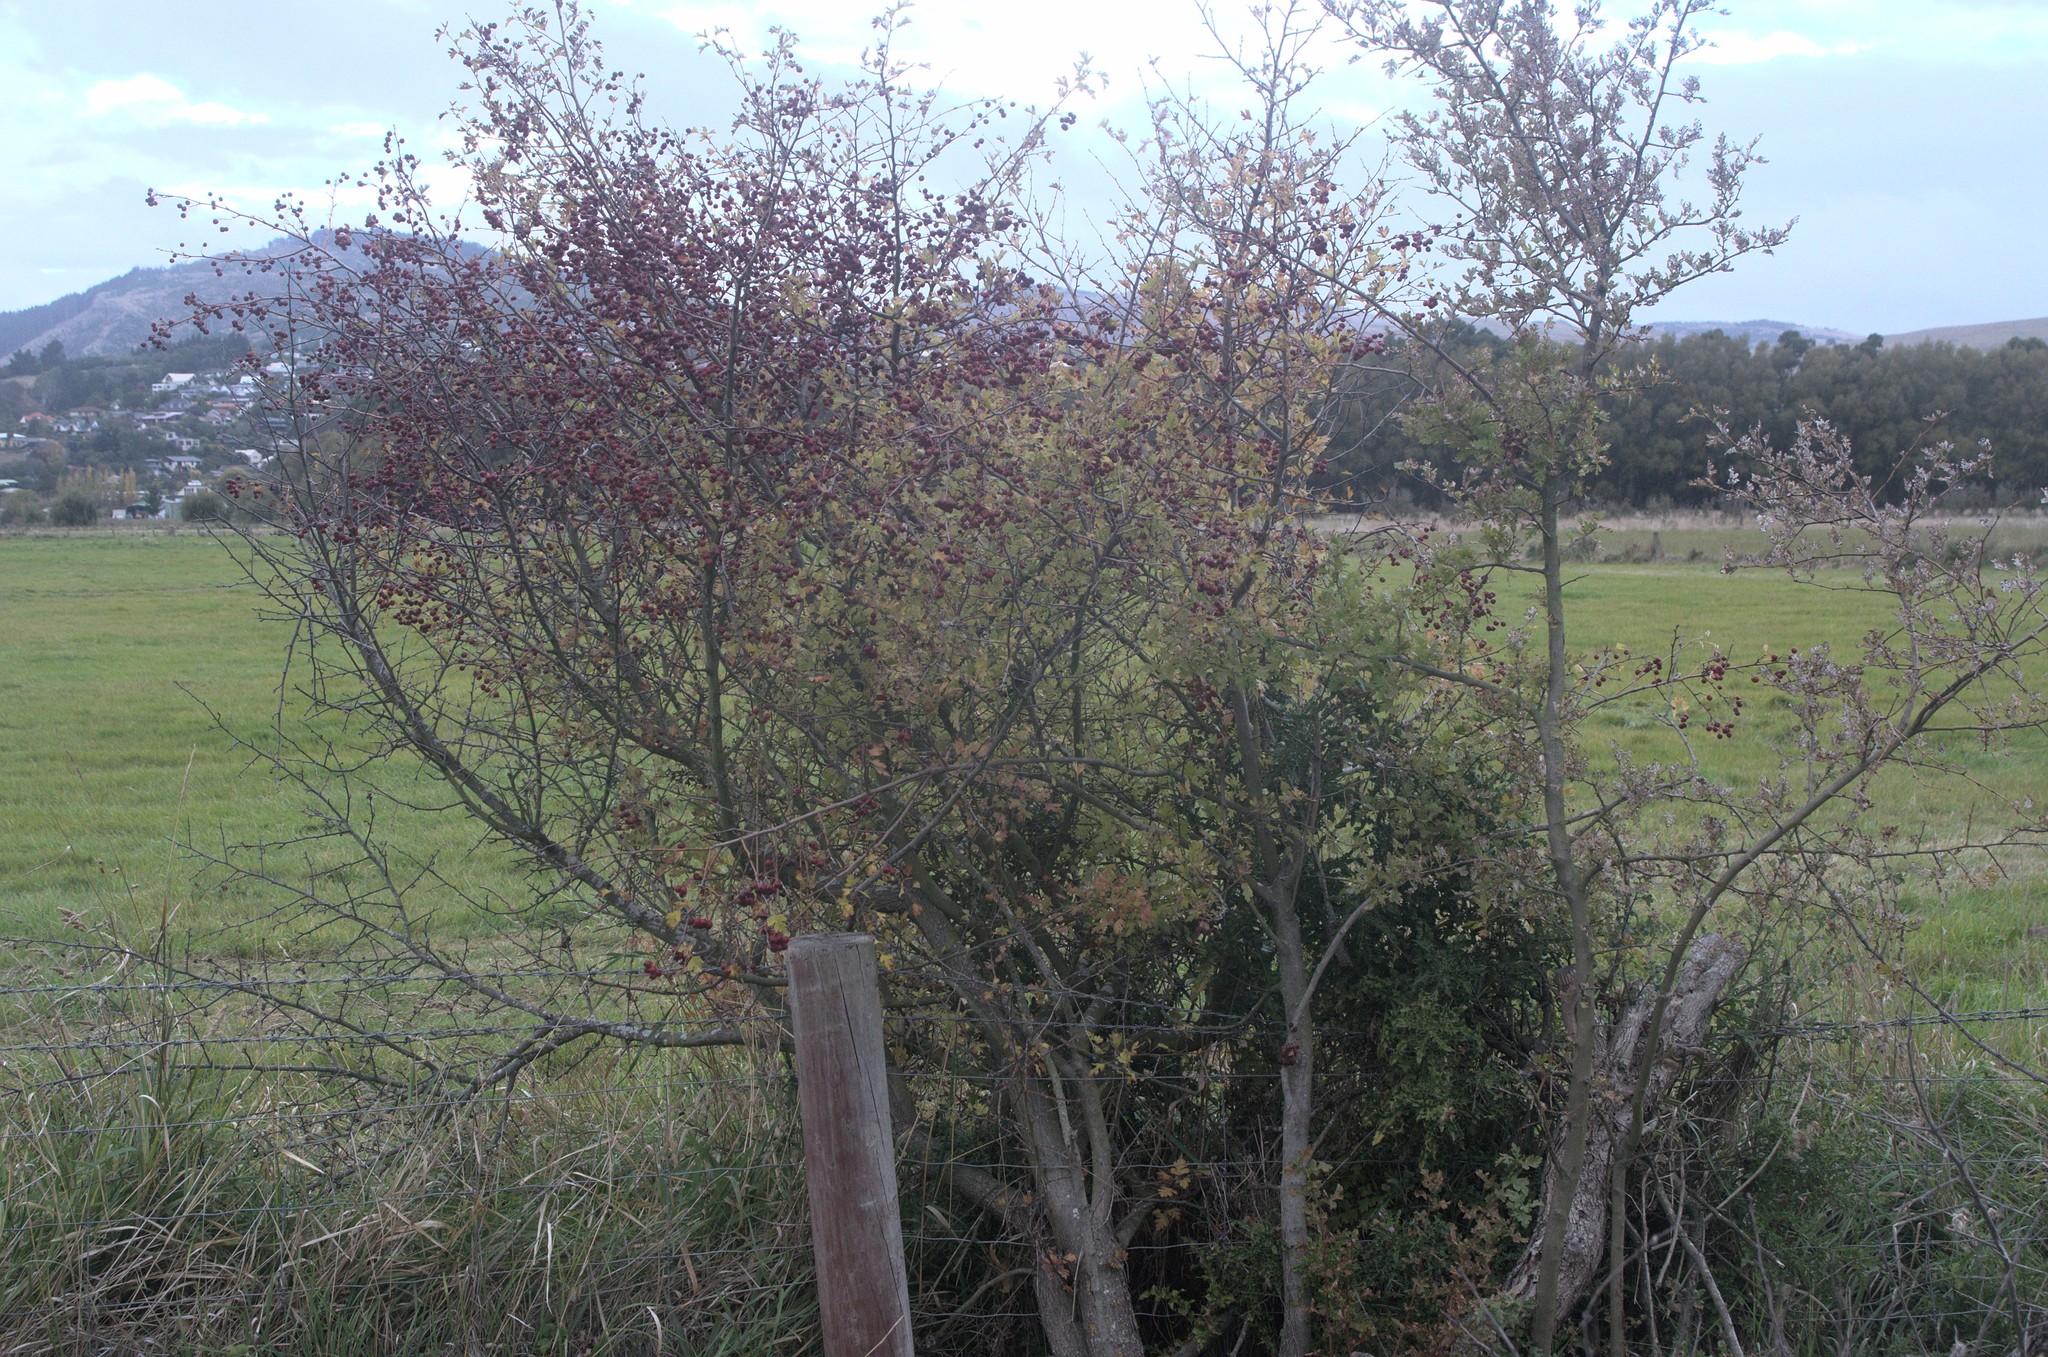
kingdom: Plantae
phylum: Tracheophyta
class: Magnoliopsida
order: Rosales
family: Rosaceae
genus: Crataegus
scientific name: Crataegus monogyna
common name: Hawthorn
